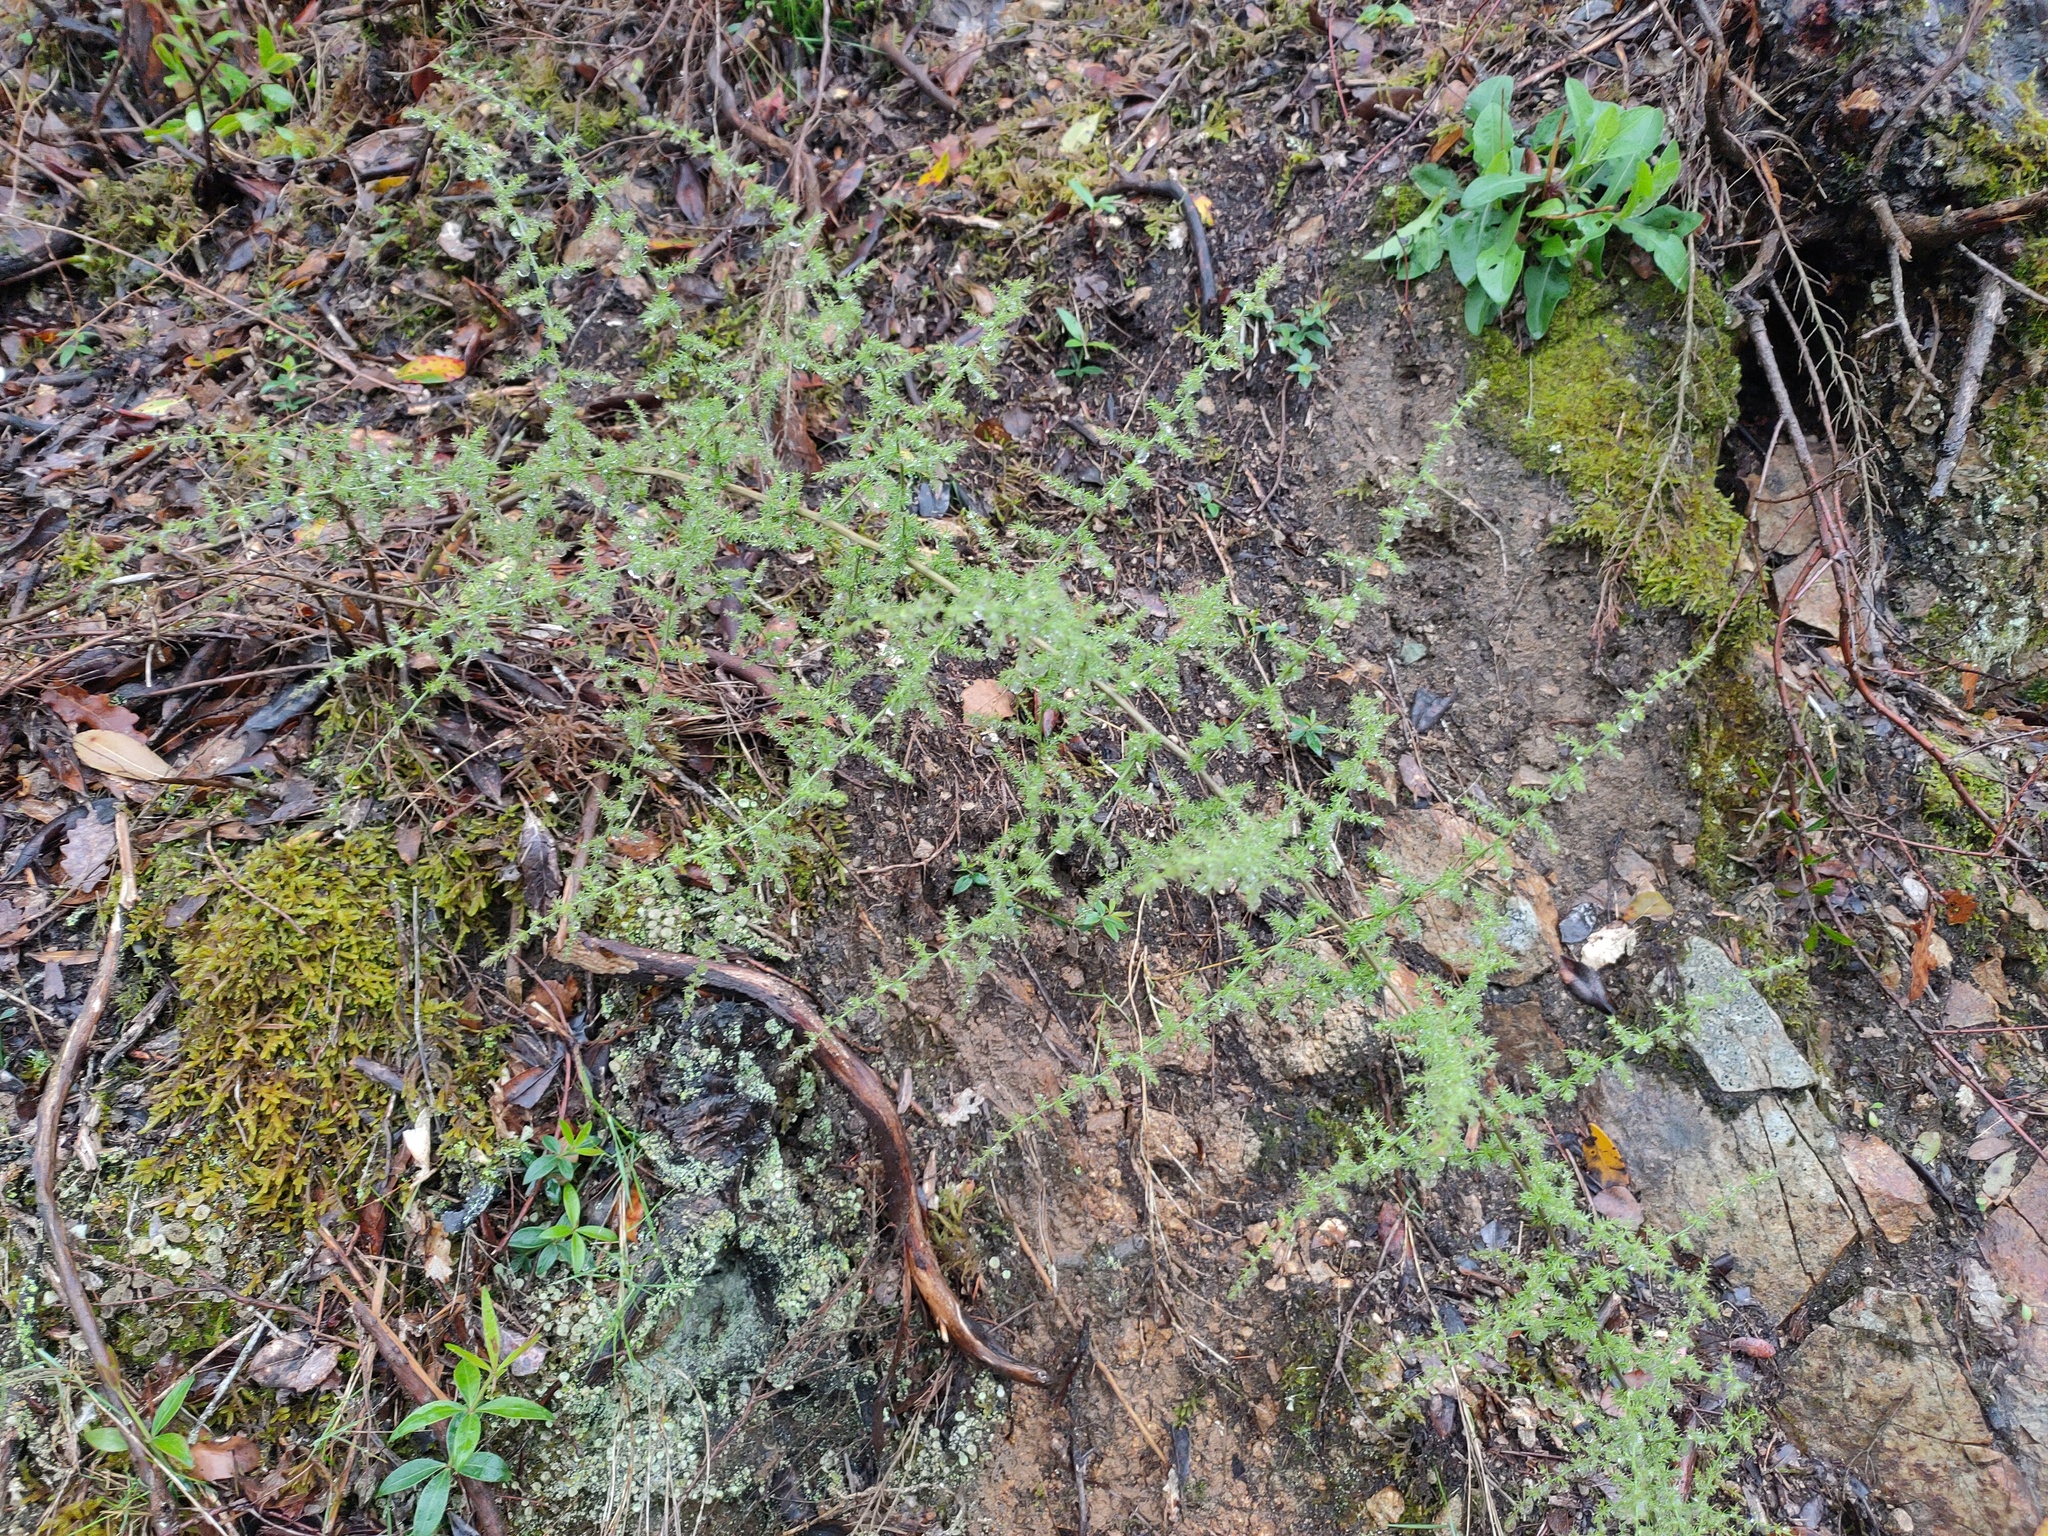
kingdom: Plantae
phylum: Tracheophyta
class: Liliopsida
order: Asparagales
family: Asparagaceae
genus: Asparagus
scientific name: Asparagus acutifolius
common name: Wild asparagus
